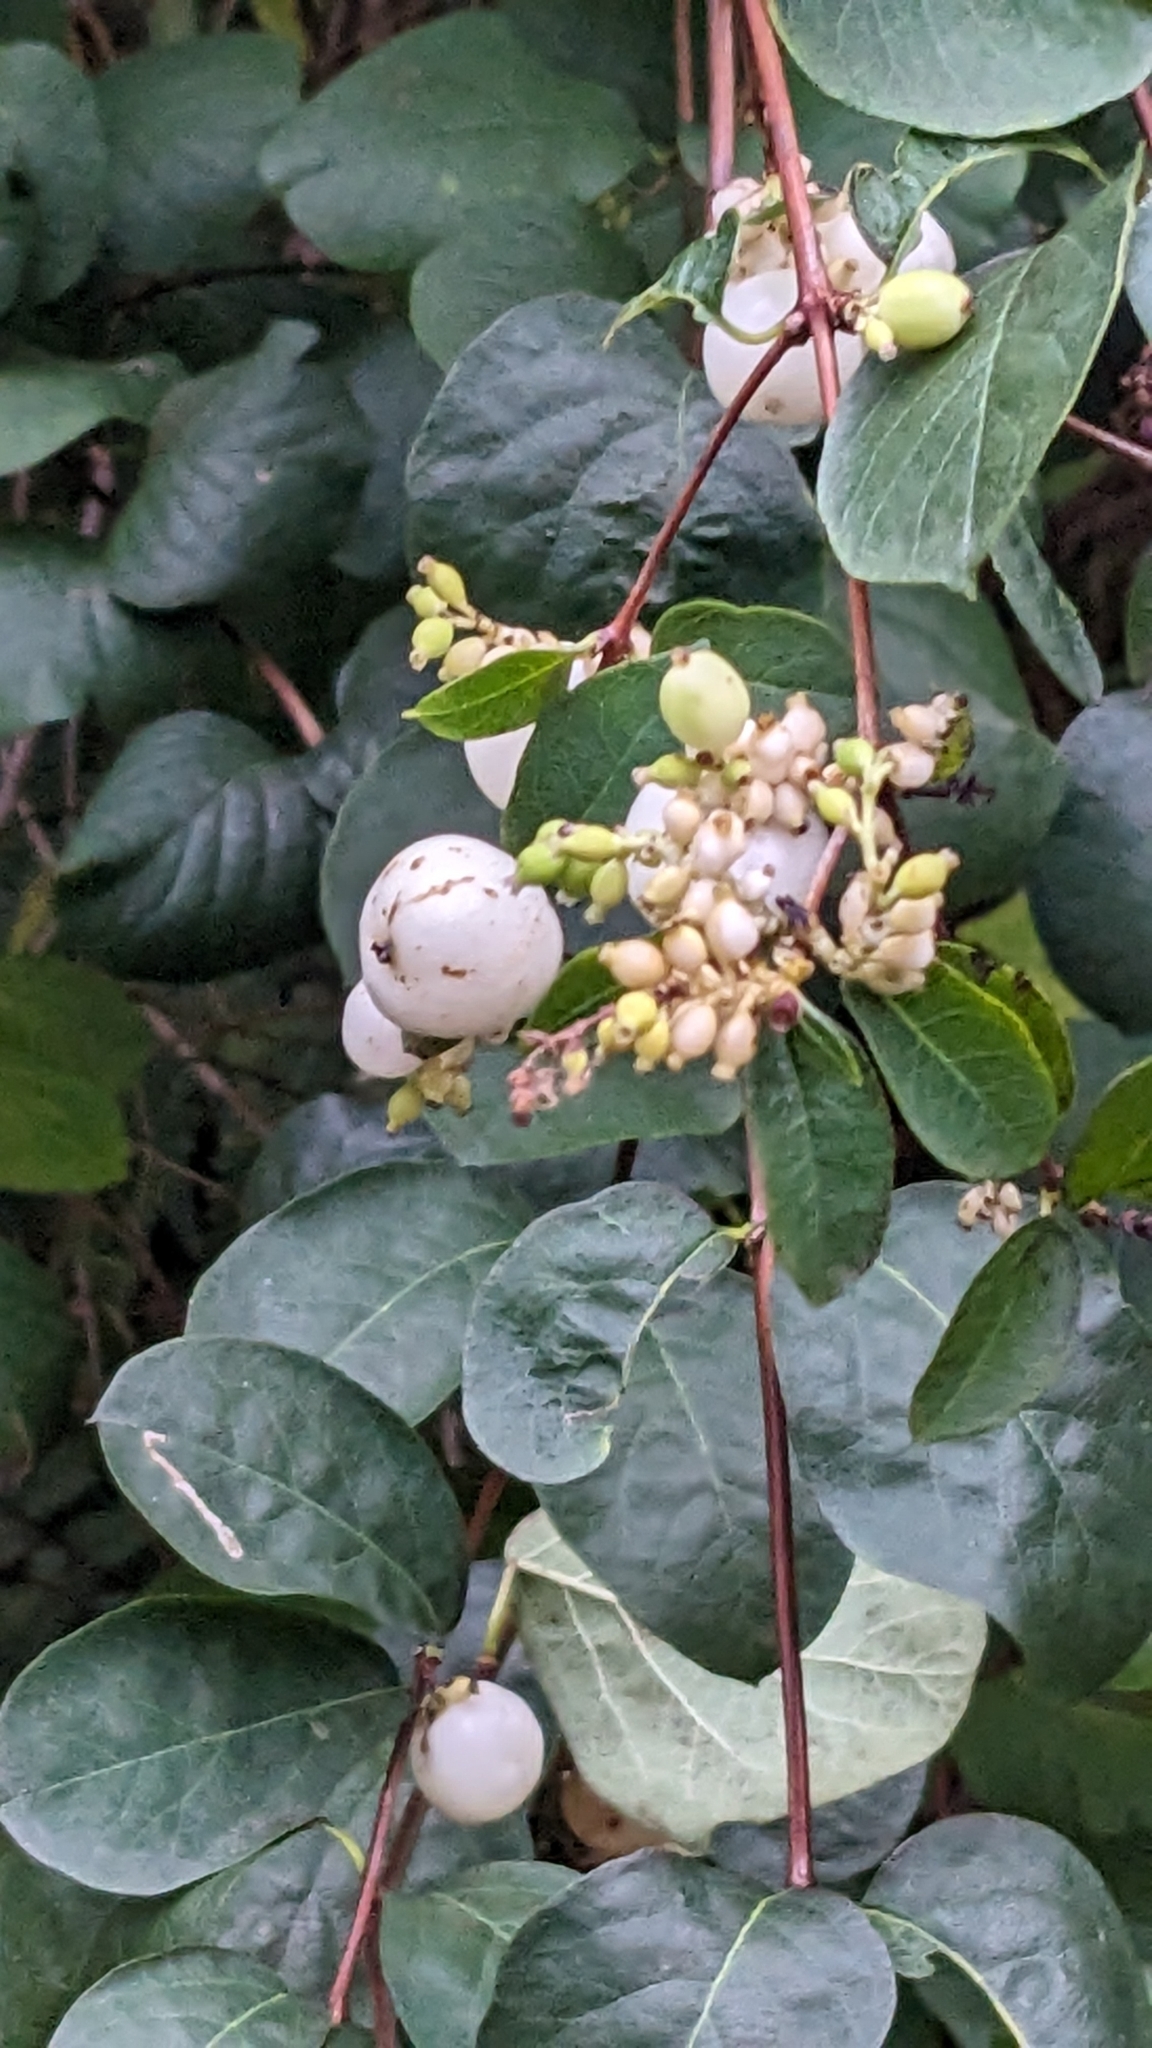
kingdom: Plantae
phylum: Tracheophyta
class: Magnoliopsida
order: Dipsacales
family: Caprifoliaceae
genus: Symphoricarpos
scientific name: Symphoricarpos albus
